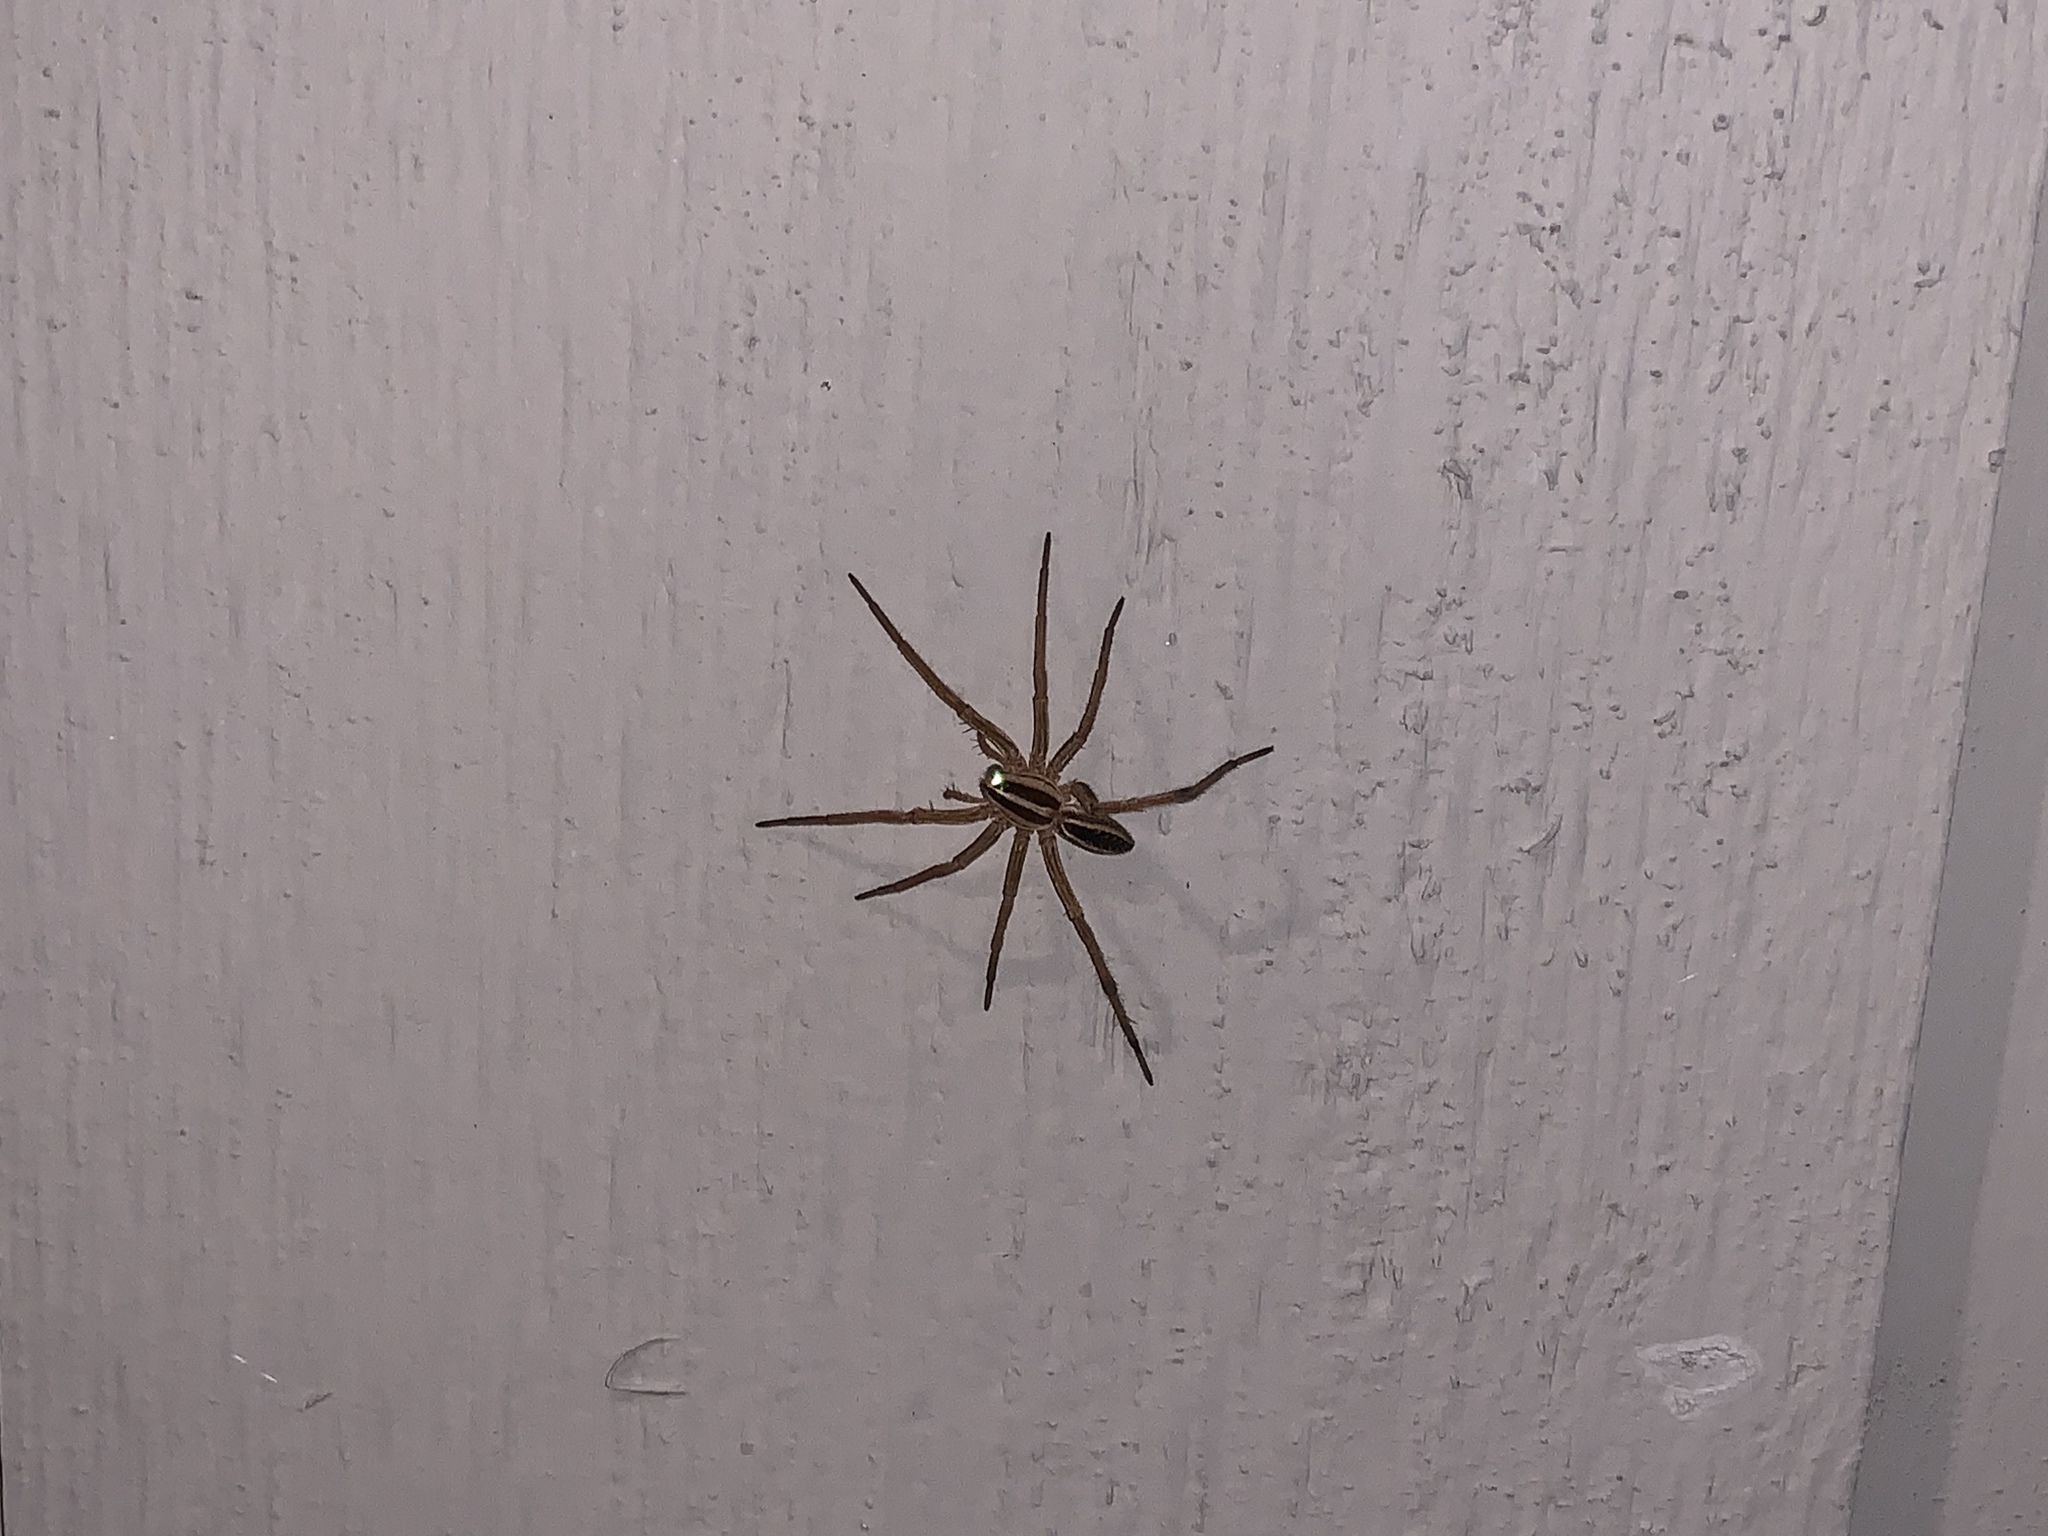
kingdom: Animalia
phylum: Arthropoda
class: Arachnida
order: Araneae
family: Lycosidae
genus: Rabidosa
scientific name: Rabidosa rabida
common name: Rabid wolf spider
